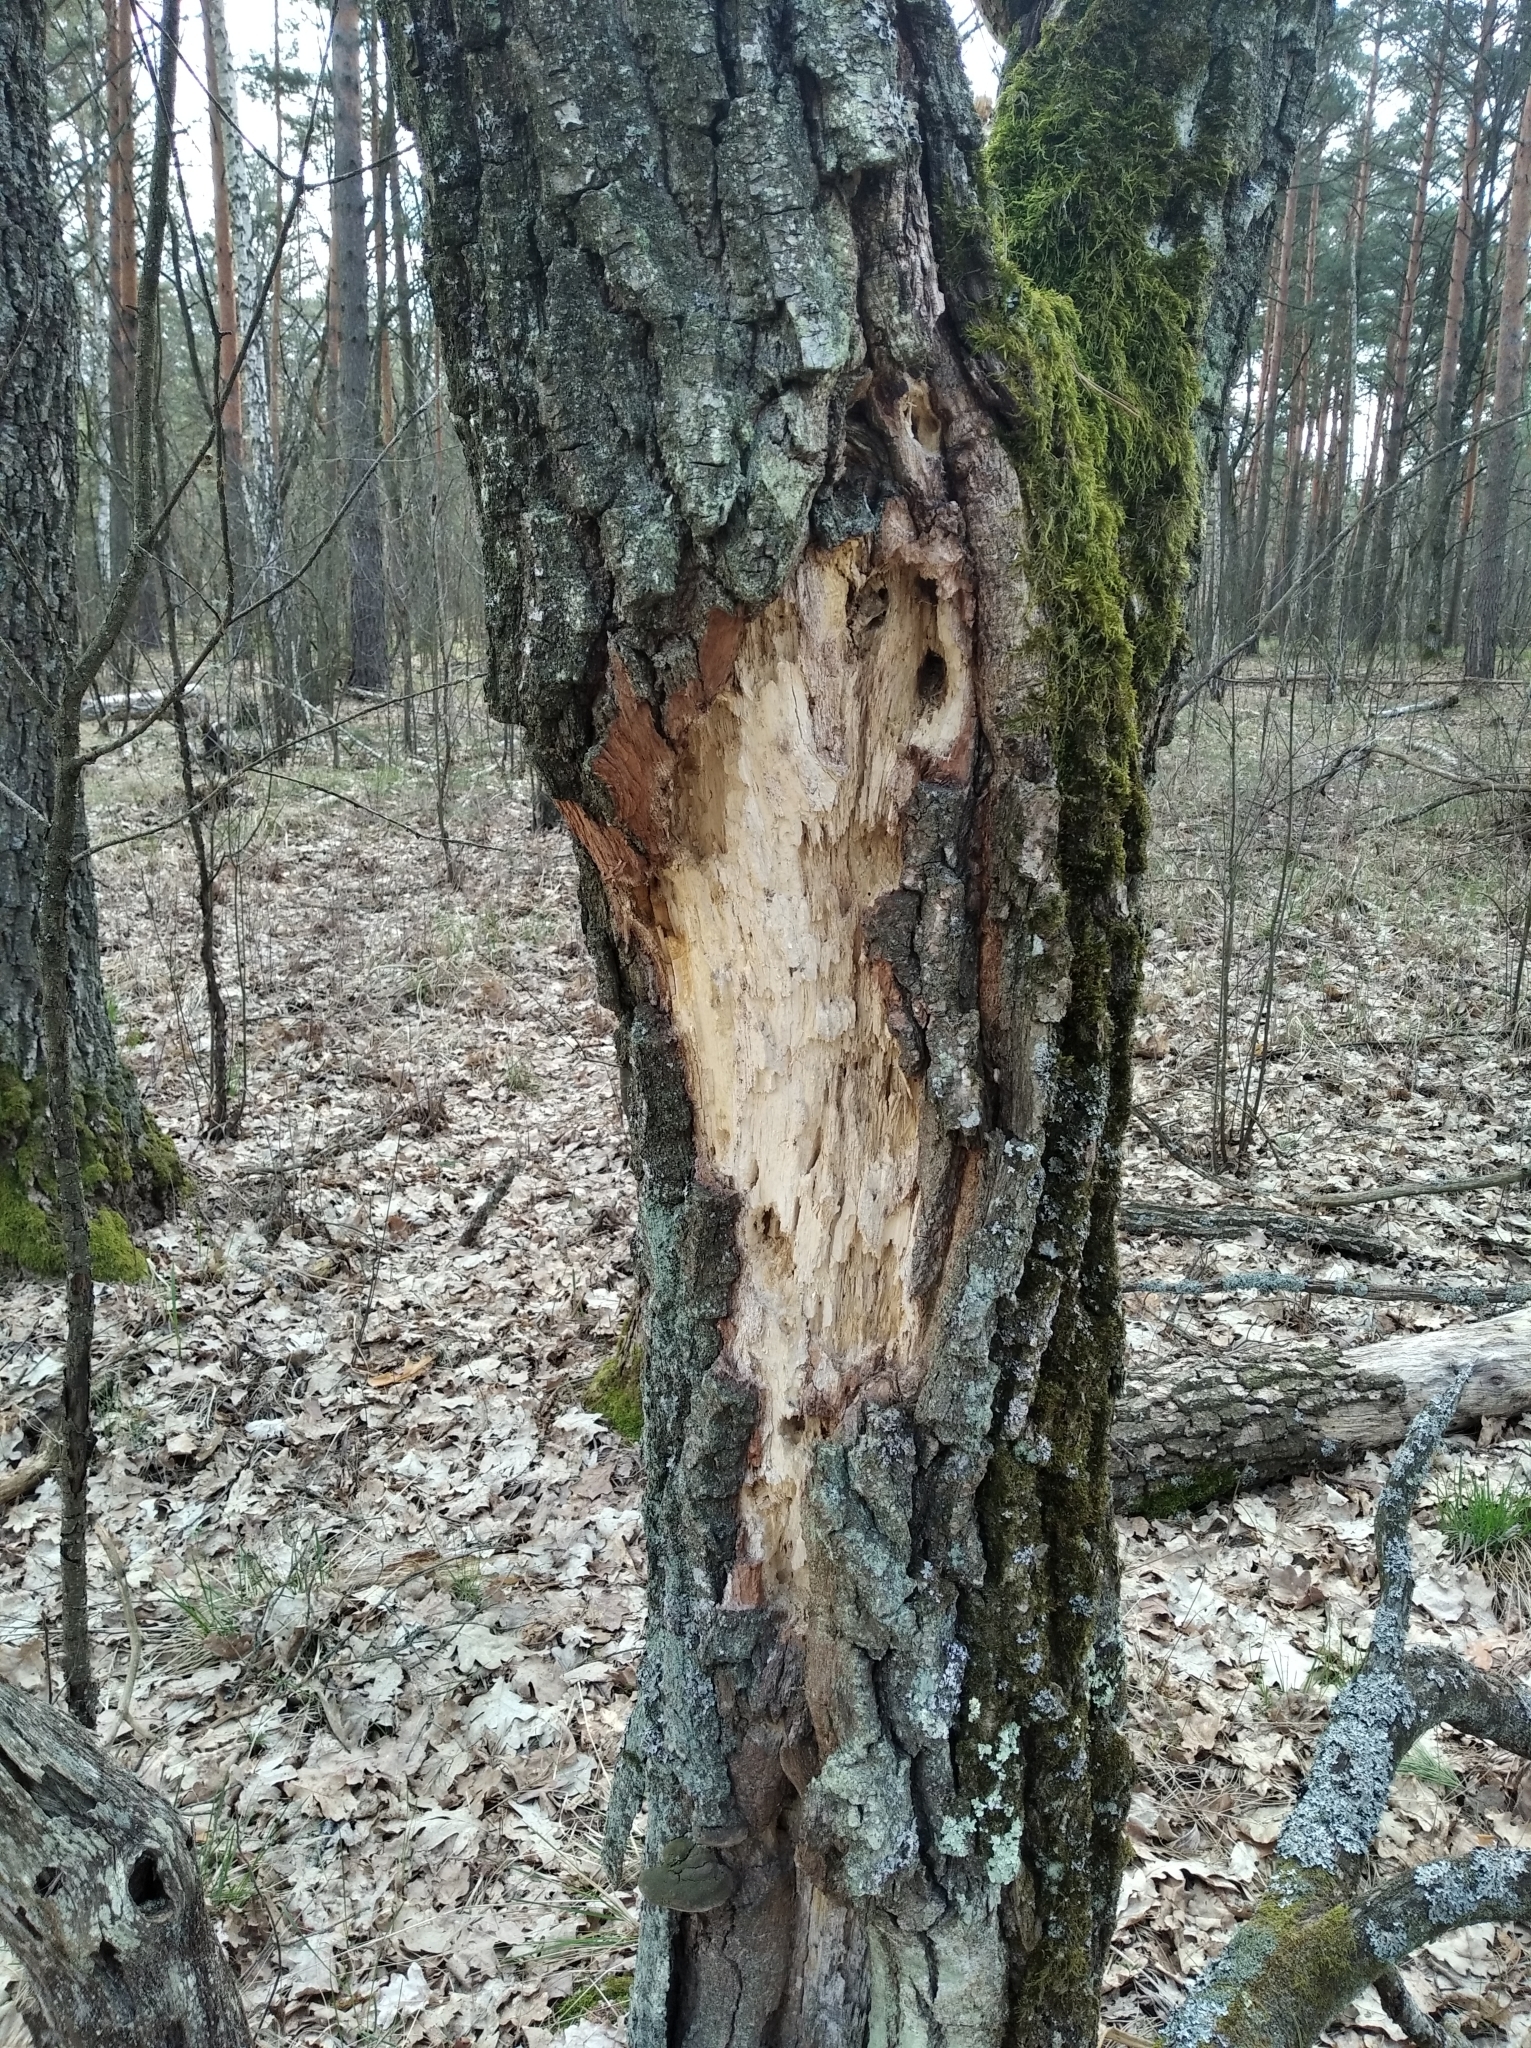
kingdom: Animalia
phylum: Chordata
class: Aves
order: Piciformes
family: Picidae
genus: Dryocopus
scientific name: Dryocopus martius
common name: Black woodpecker
